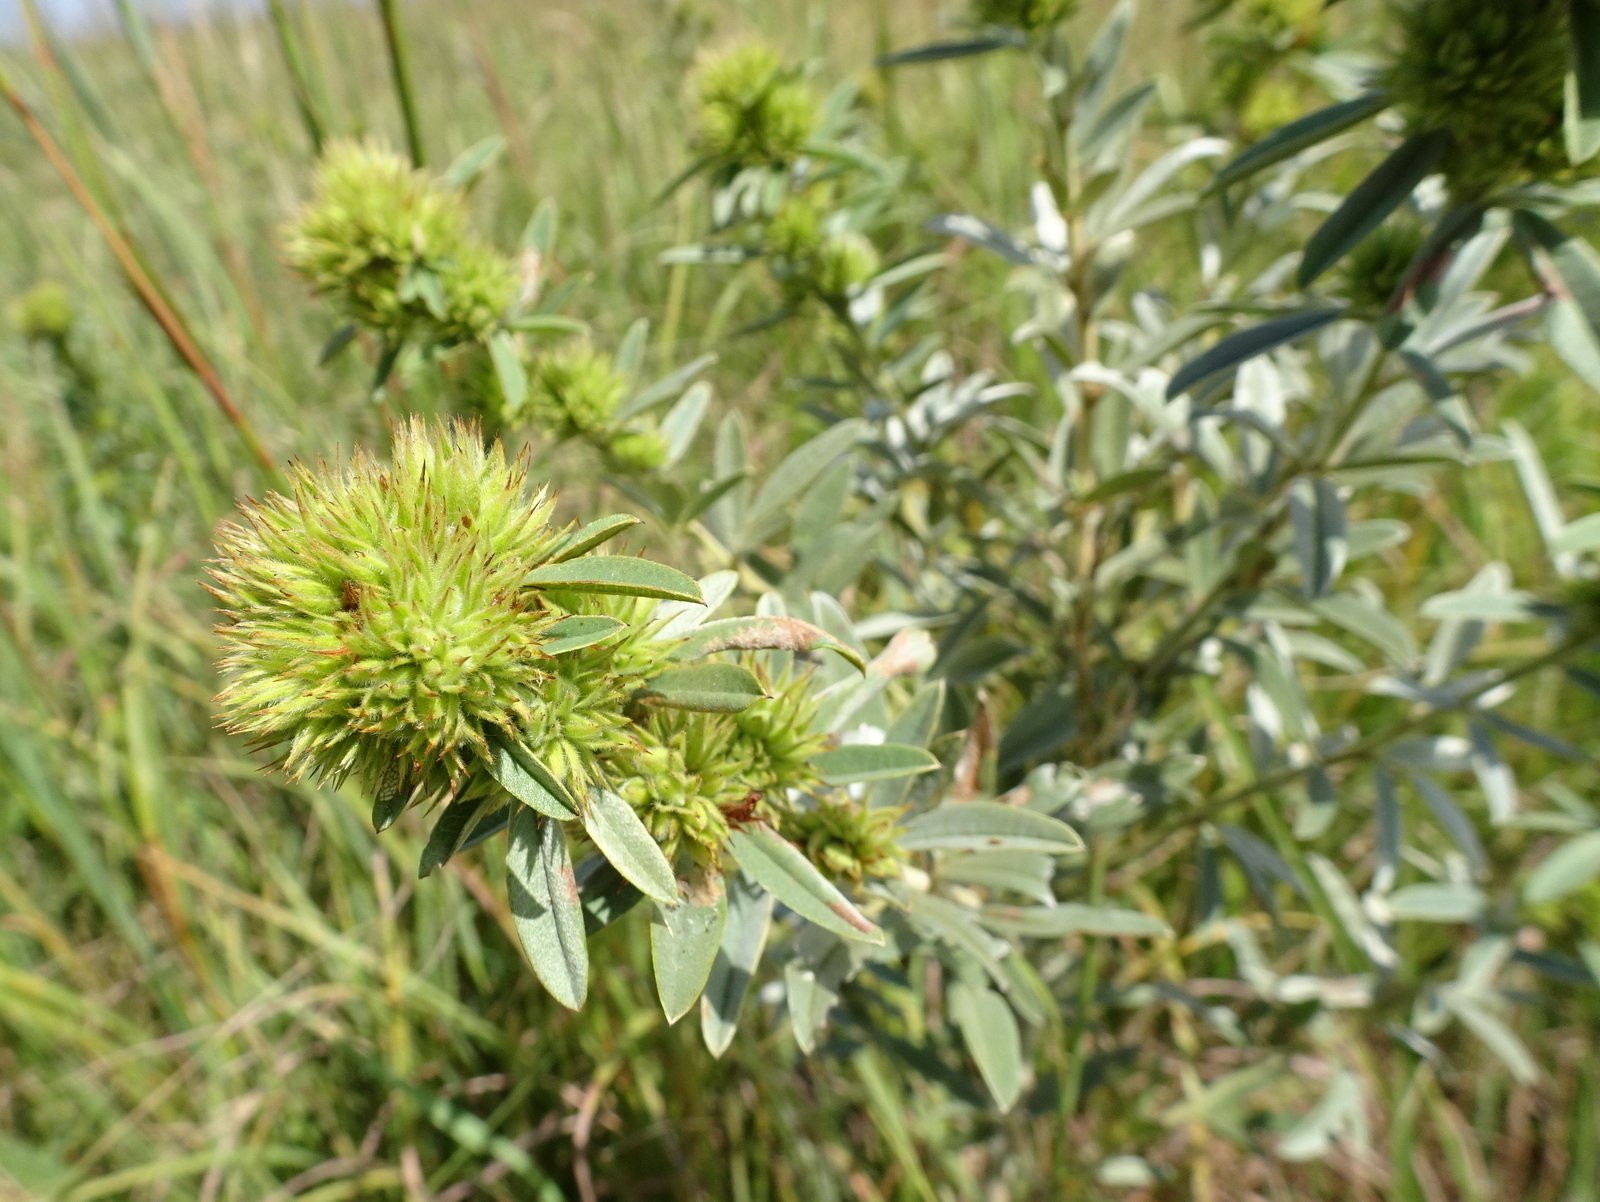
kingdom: Plantae
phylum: Tracheophyta
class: Magnoliopsida
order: Fabales
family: Fabaceae
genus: Lespedeza
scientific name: Lespedeza capitata
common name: Dusty clover
